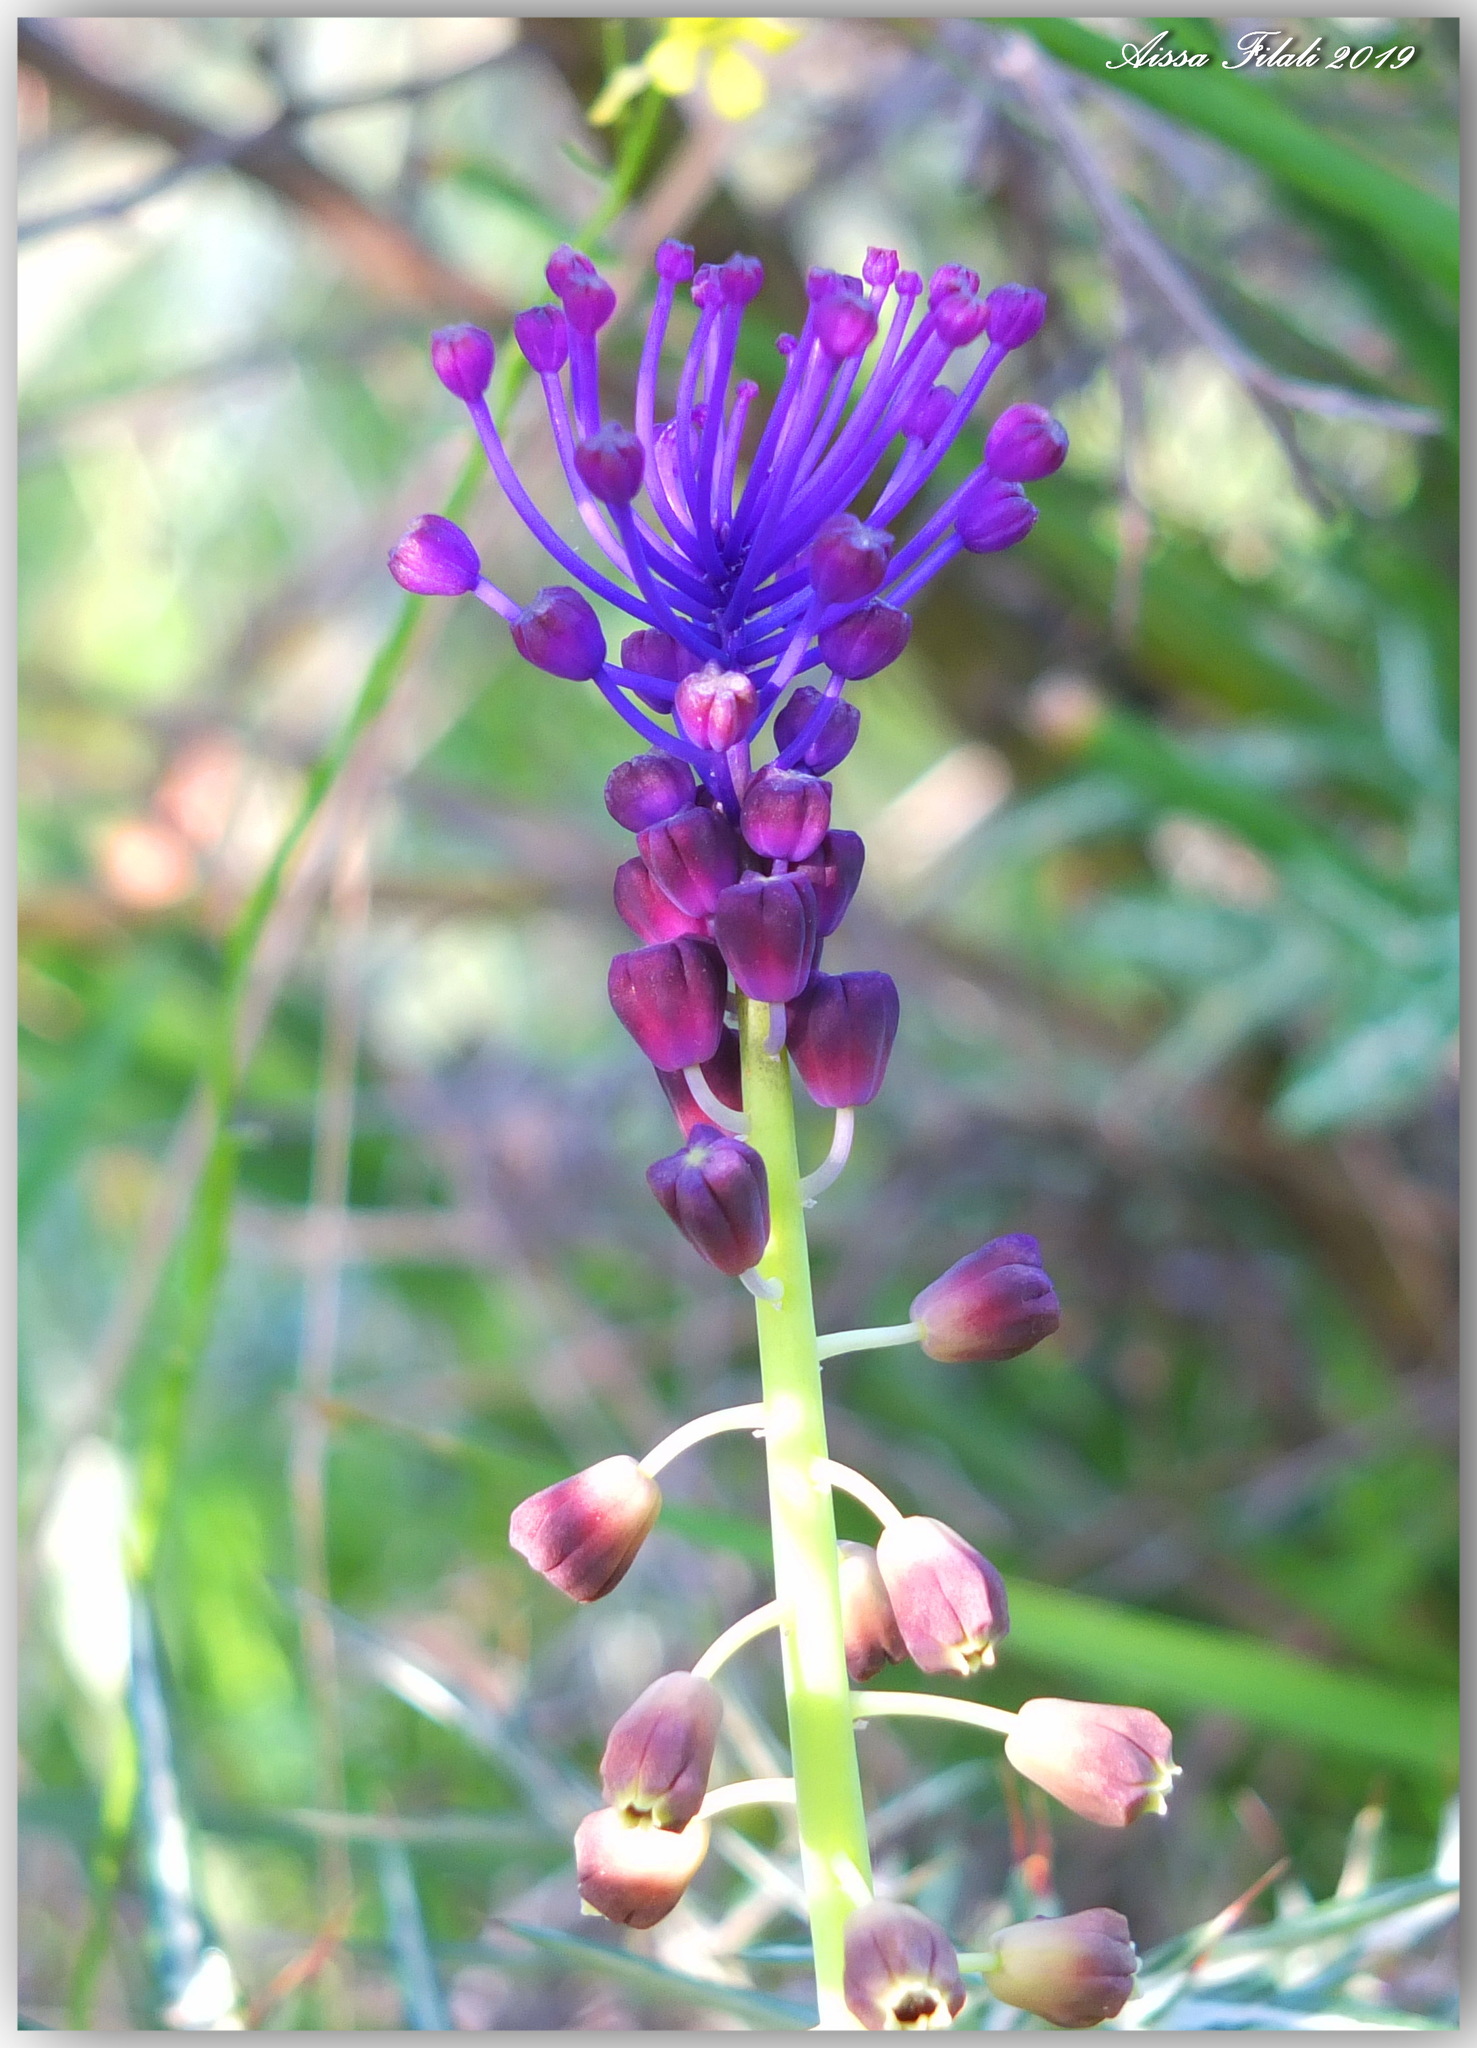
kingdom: Plantae
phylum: Tracheophyta
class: Liliopsida
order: Asparagales
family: Asparagaceae
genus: Muscari
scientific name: Muscari comosum
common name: Tassel hyacinth
